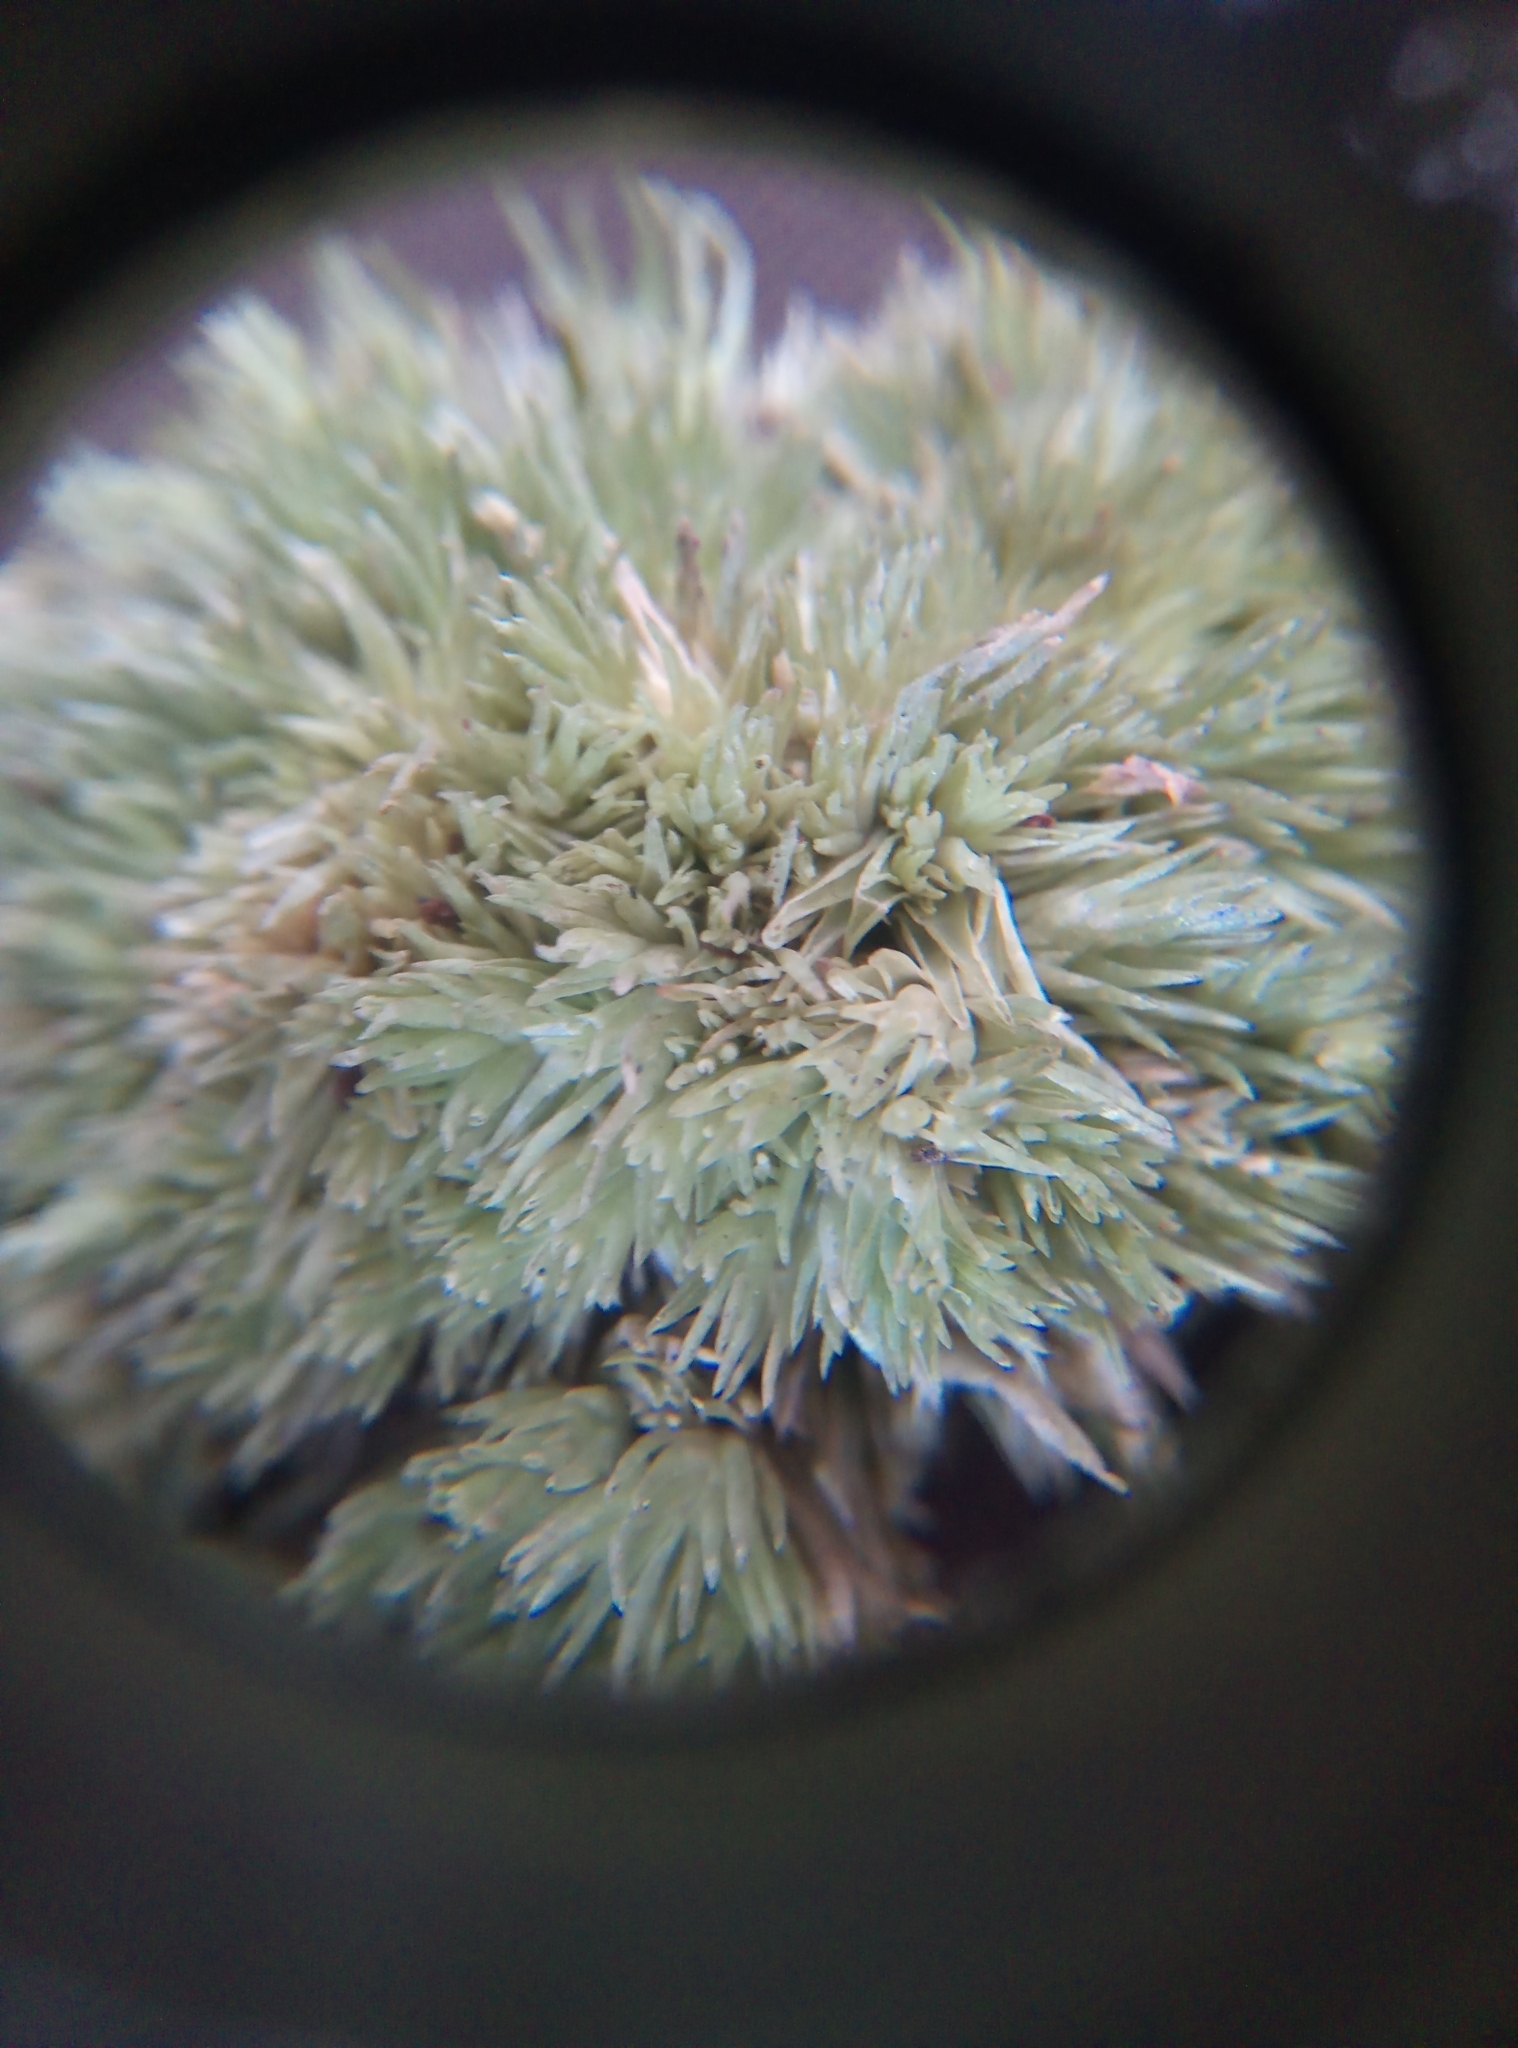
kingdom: Plantae
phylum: Bryophyta
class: Bryopsida
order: Dicranales
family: Leucobryaceae
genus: Leucobryum
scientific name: Leucobryum glaucum
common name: Large white-moss
